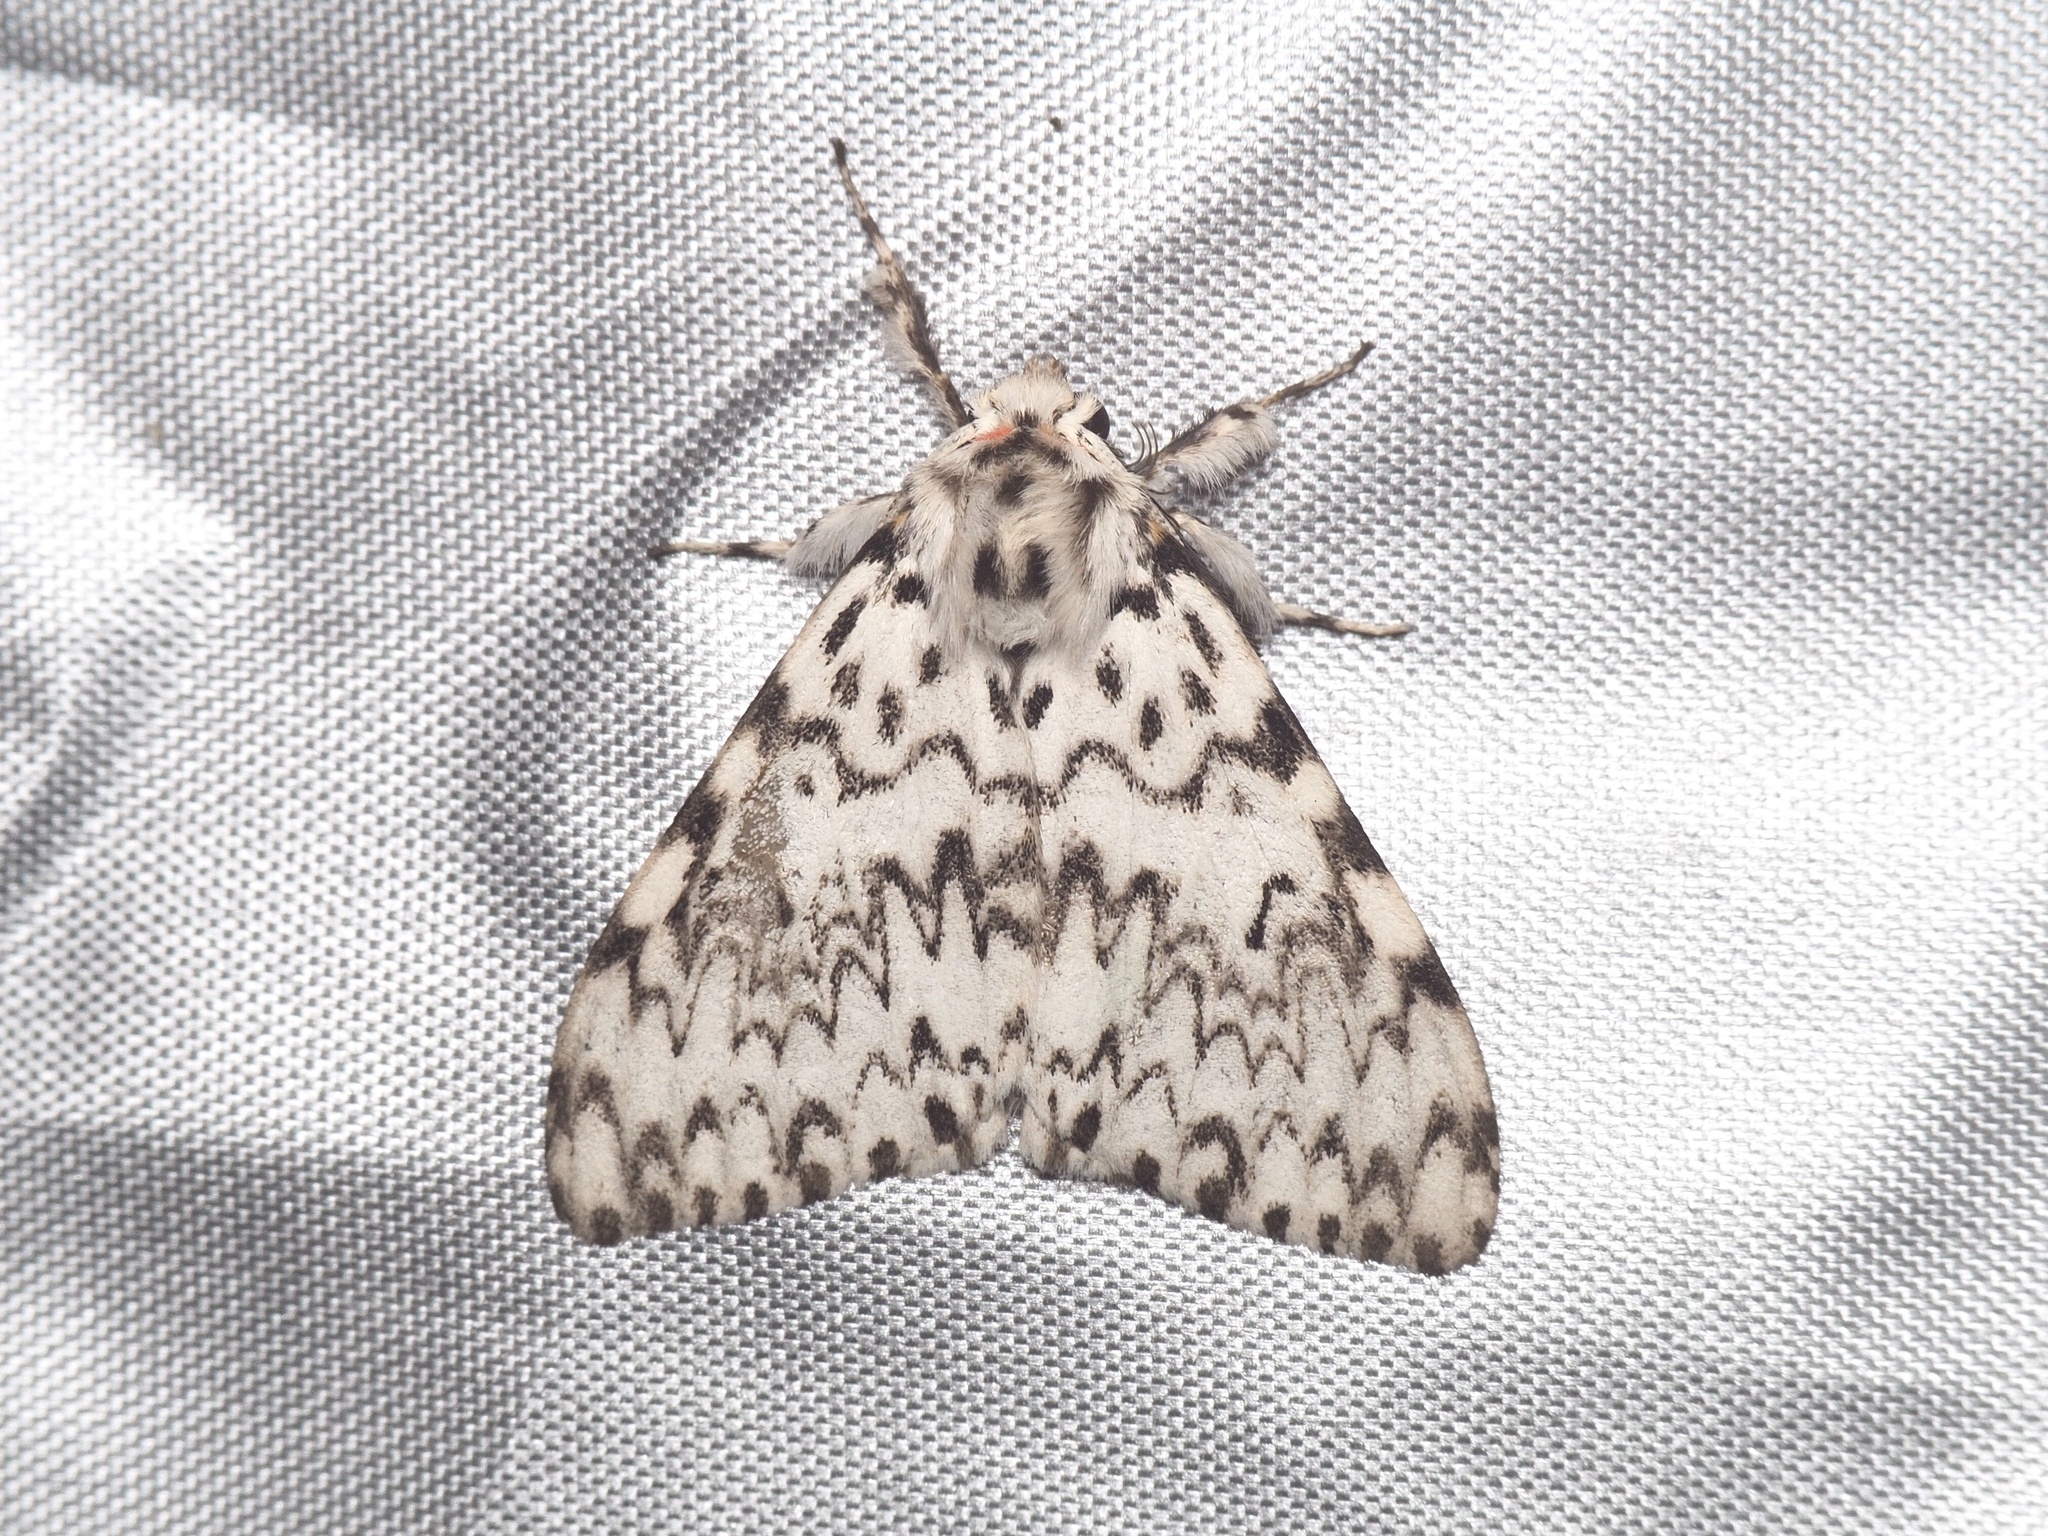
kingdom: Animalia
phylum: Arthropoda
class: Insecta
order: Lepidoptera
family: Erebidae
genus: Lymantria
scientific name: Lymantria monacha
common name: Black arches
